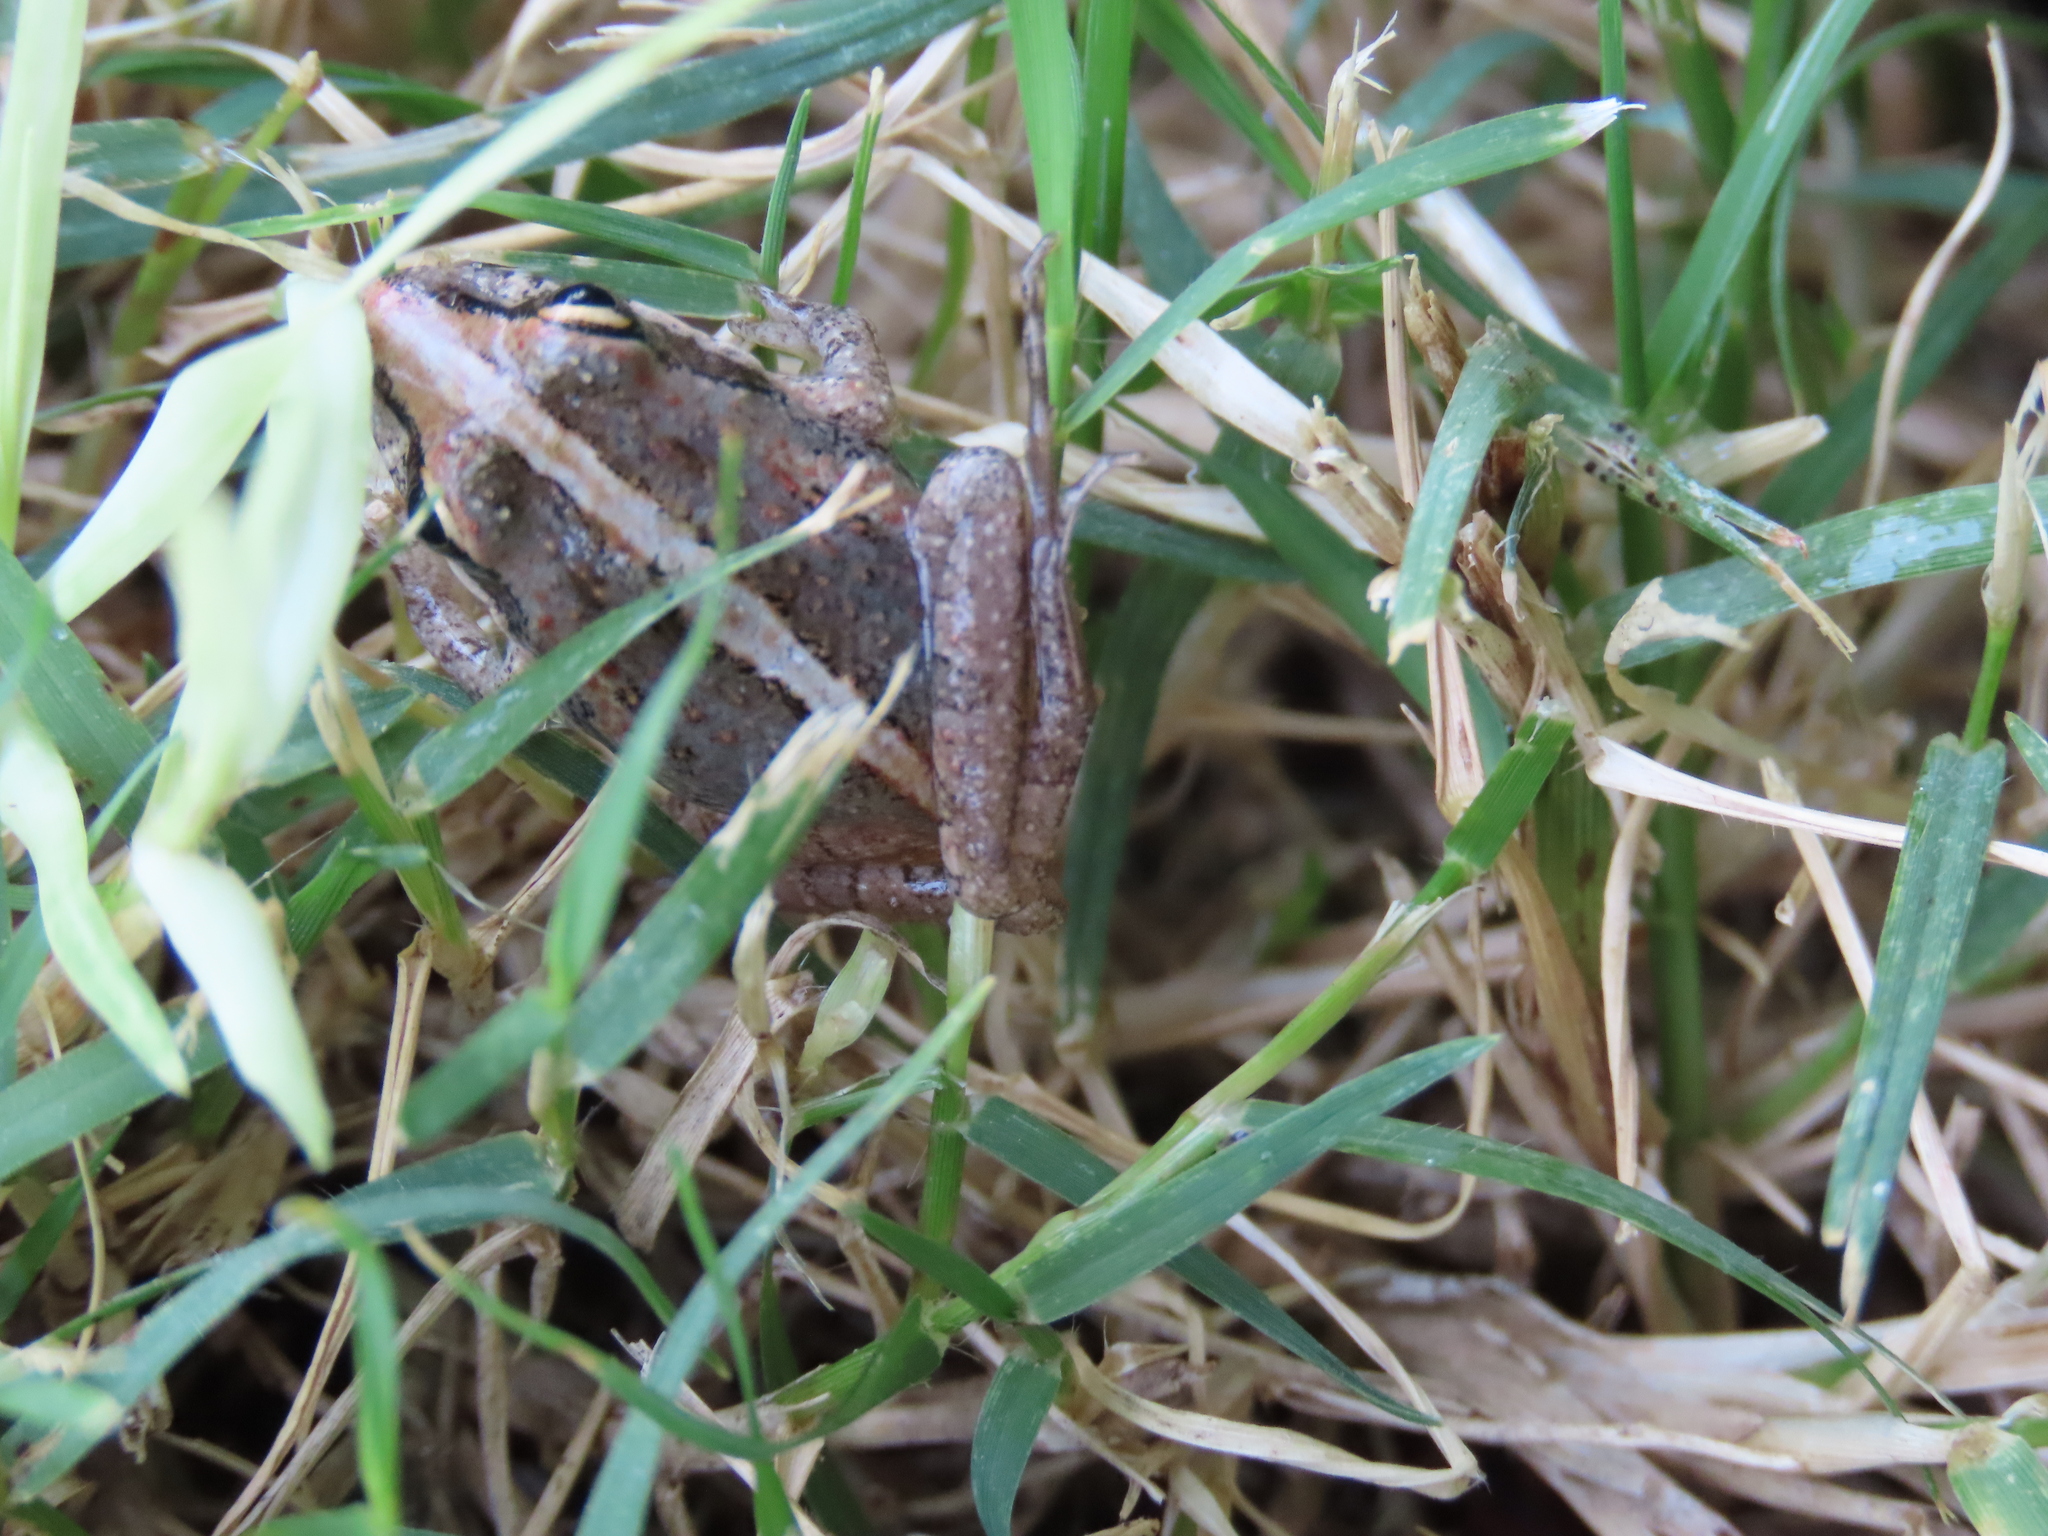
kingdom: Animalia
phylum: Chordata
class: Amphibia
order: Anura
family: Pyxicephalidae
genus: Strongylopus
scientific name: Strongylopus grayii
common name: Gray's stream frog
